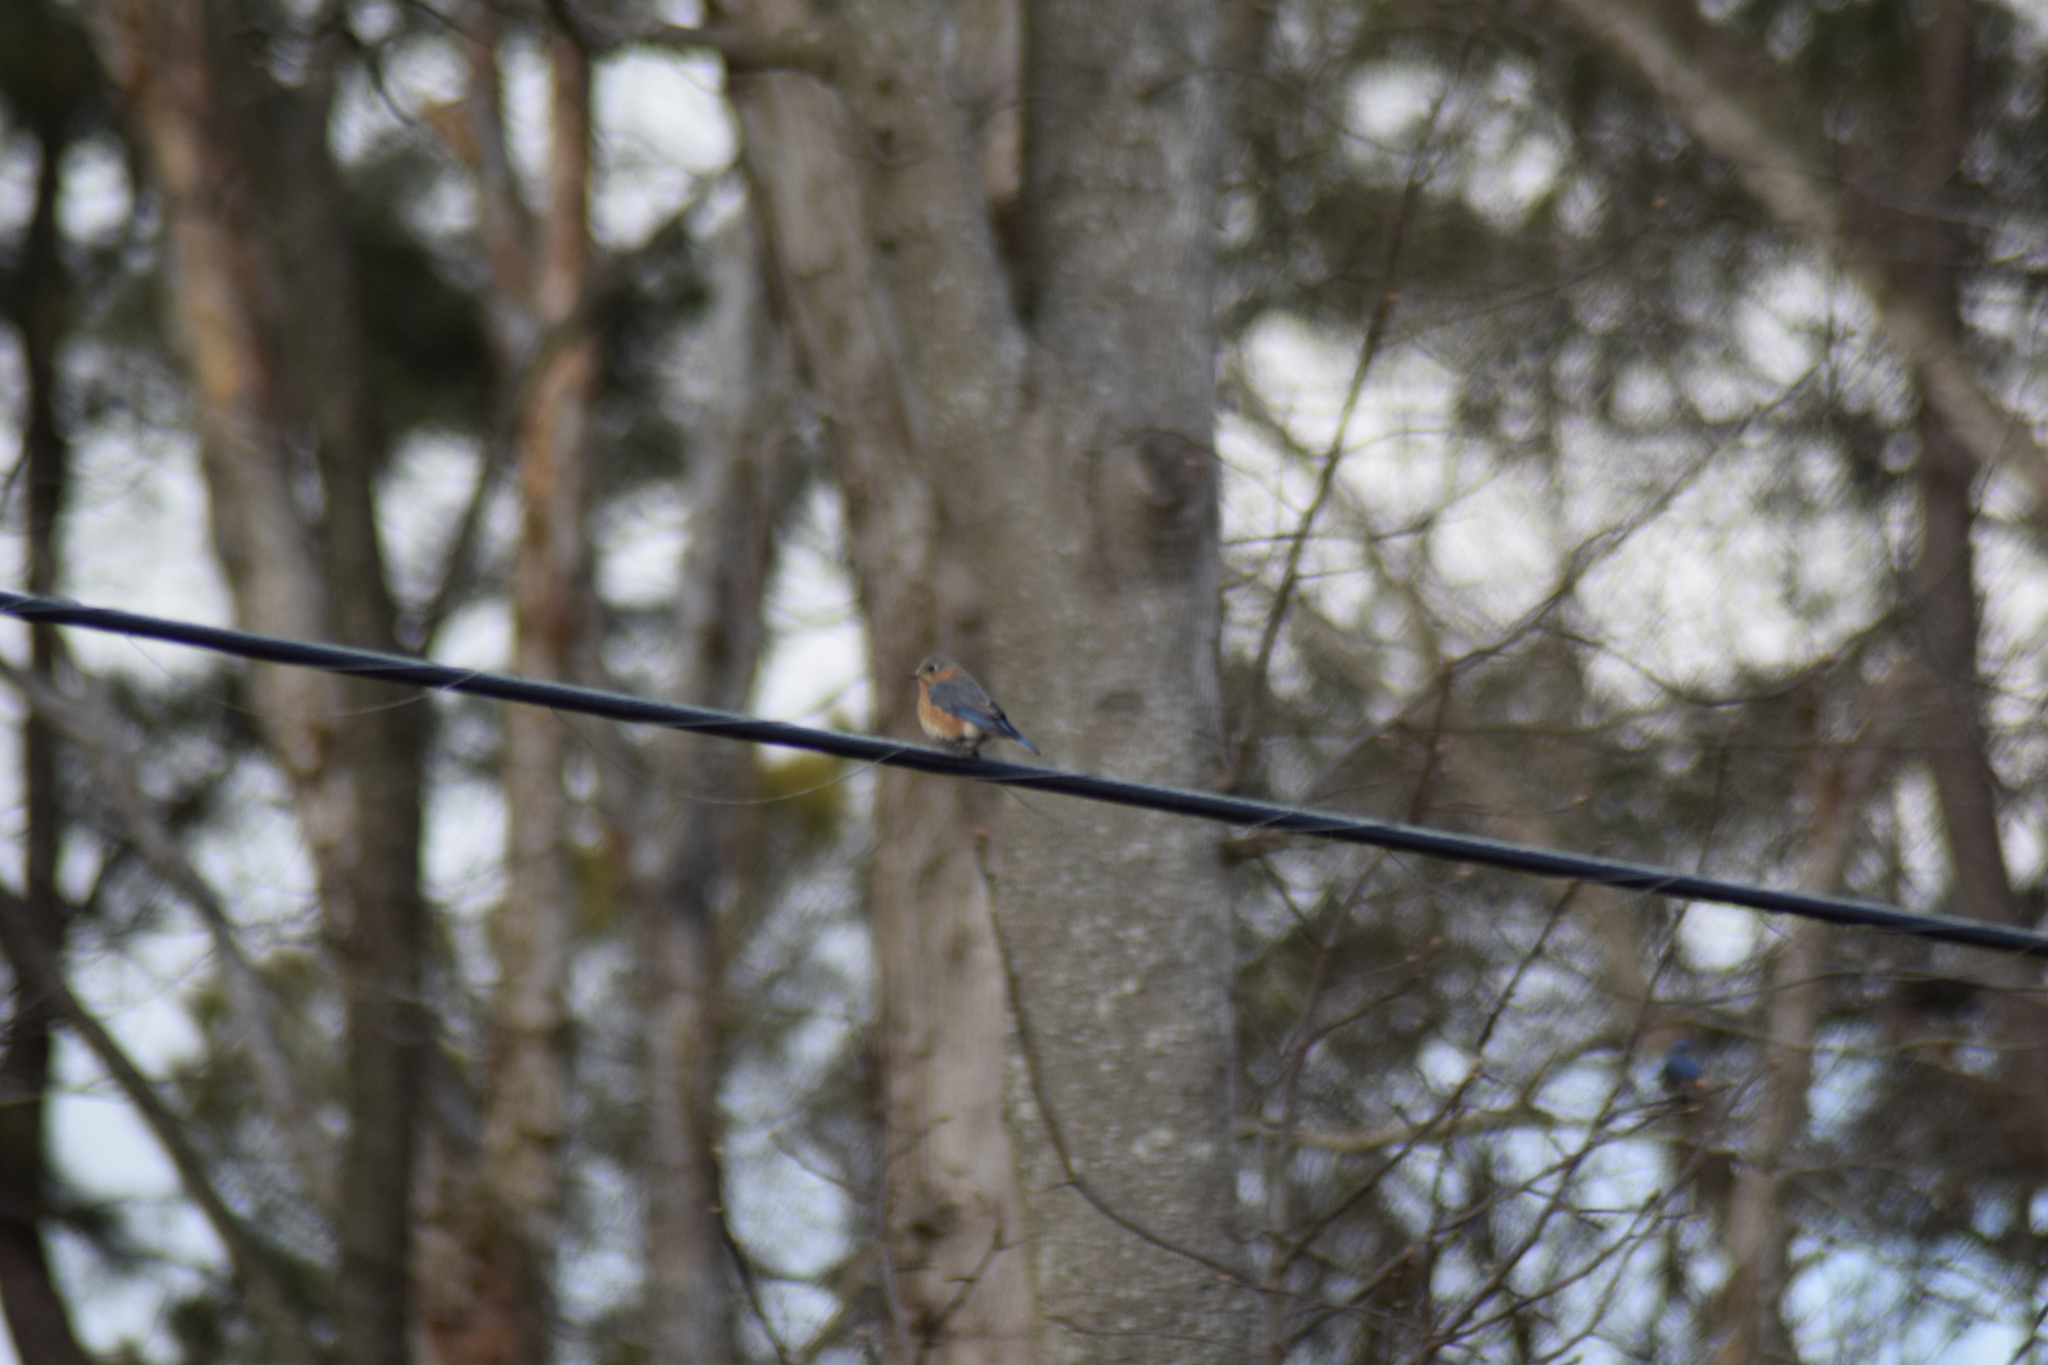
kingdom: Animalia
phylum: Chordata
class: Aves
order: Passeriformes
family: Turdidae
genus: Sialia
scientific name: Sialia sialis
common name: Eastern bluebird
